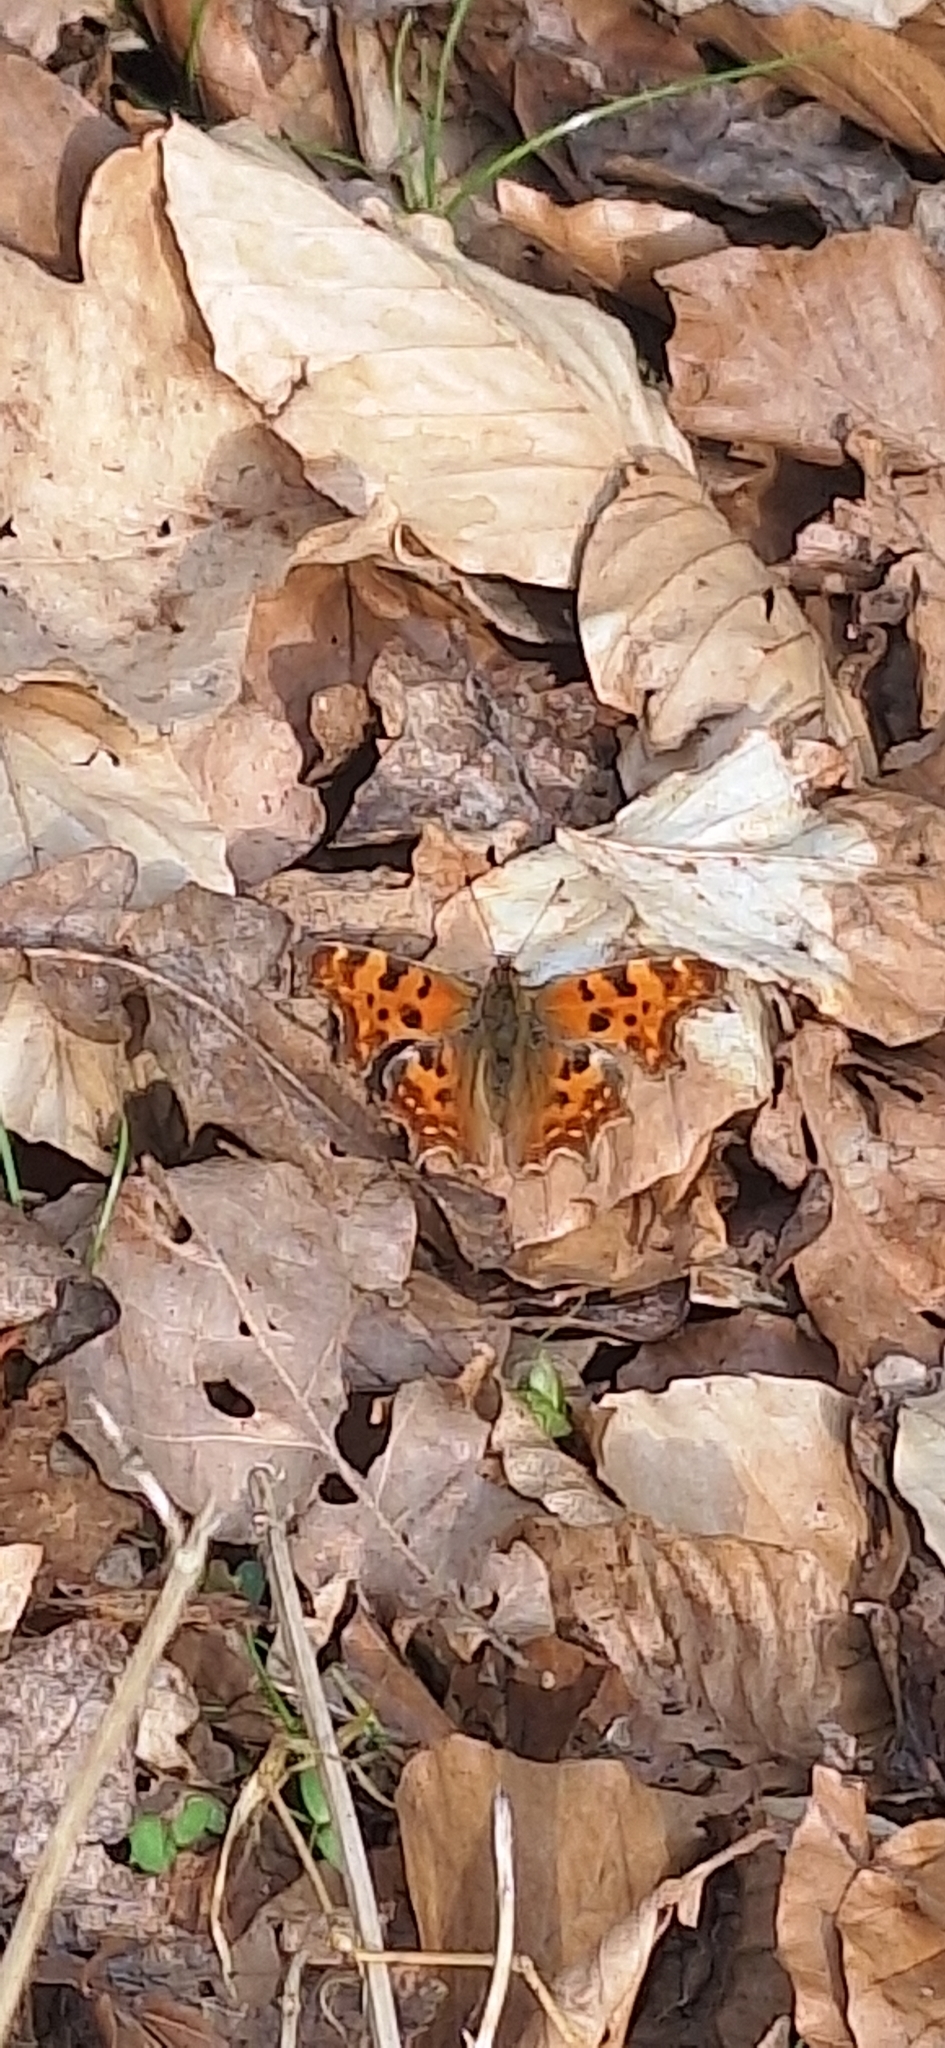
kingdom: Animalia
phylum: Arthropoda
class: Insecta
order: Lepidoptera
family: Nymphalidae
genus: Polygonia
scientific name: Polygonia c-album
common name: Comma
